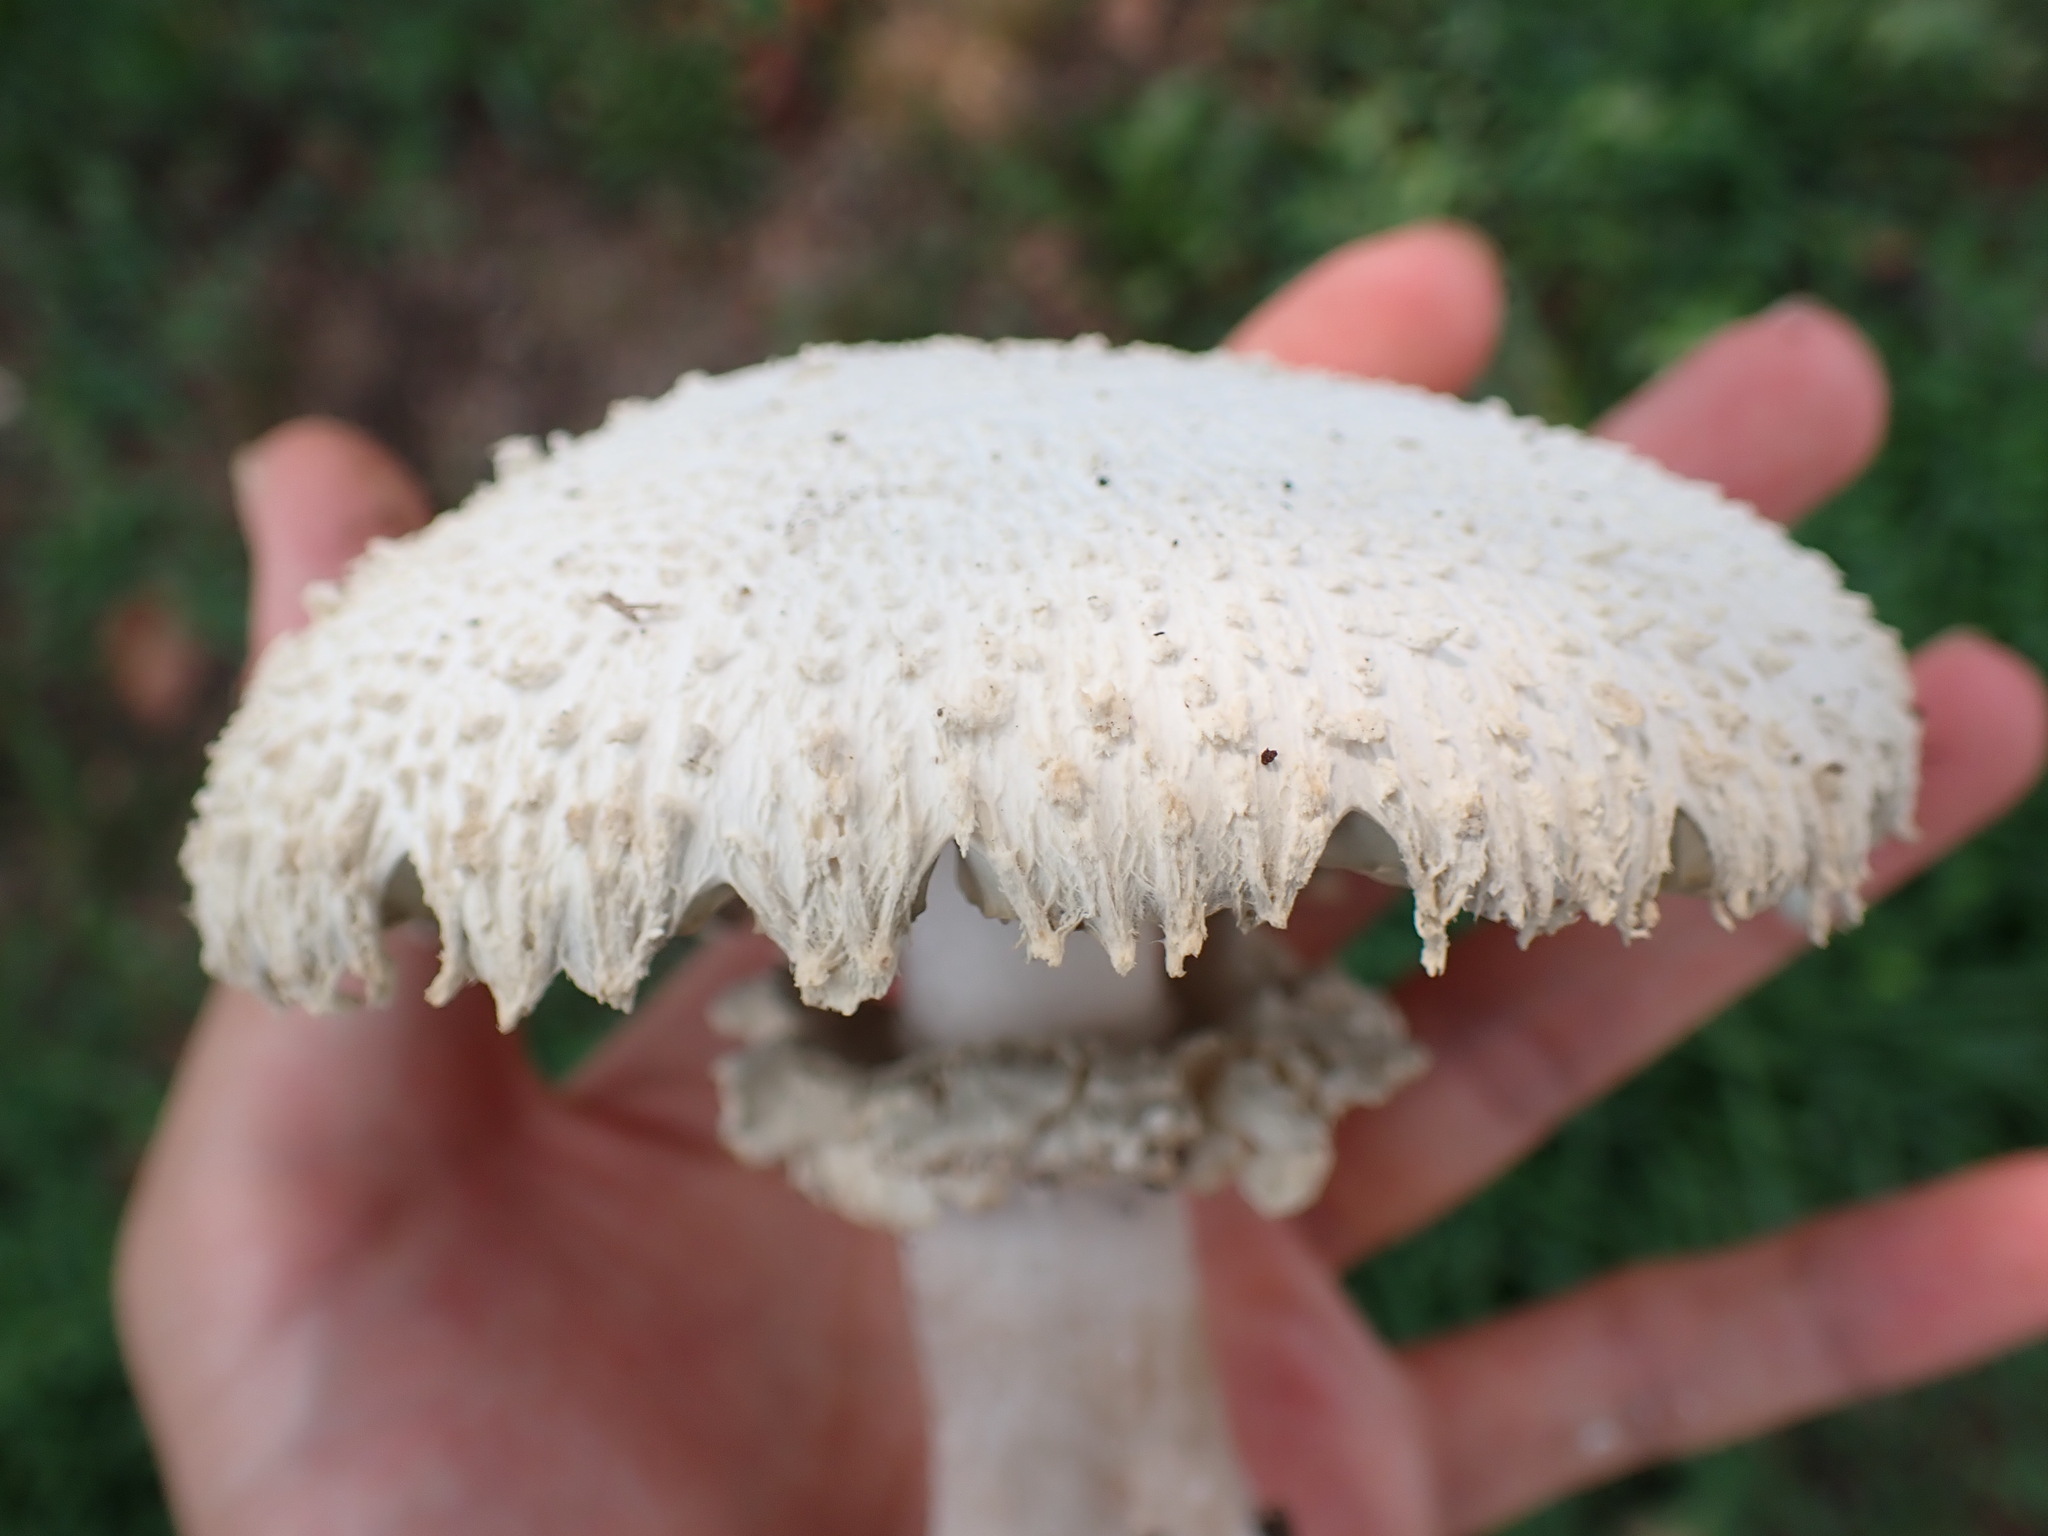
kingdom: Fungi
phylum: Basidiomycota
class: Agaricomycetes
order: Agaricales
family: Agaricaceae
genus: Chlorophyllum
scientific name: Chlorophyllum molybdites
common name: False parasol
